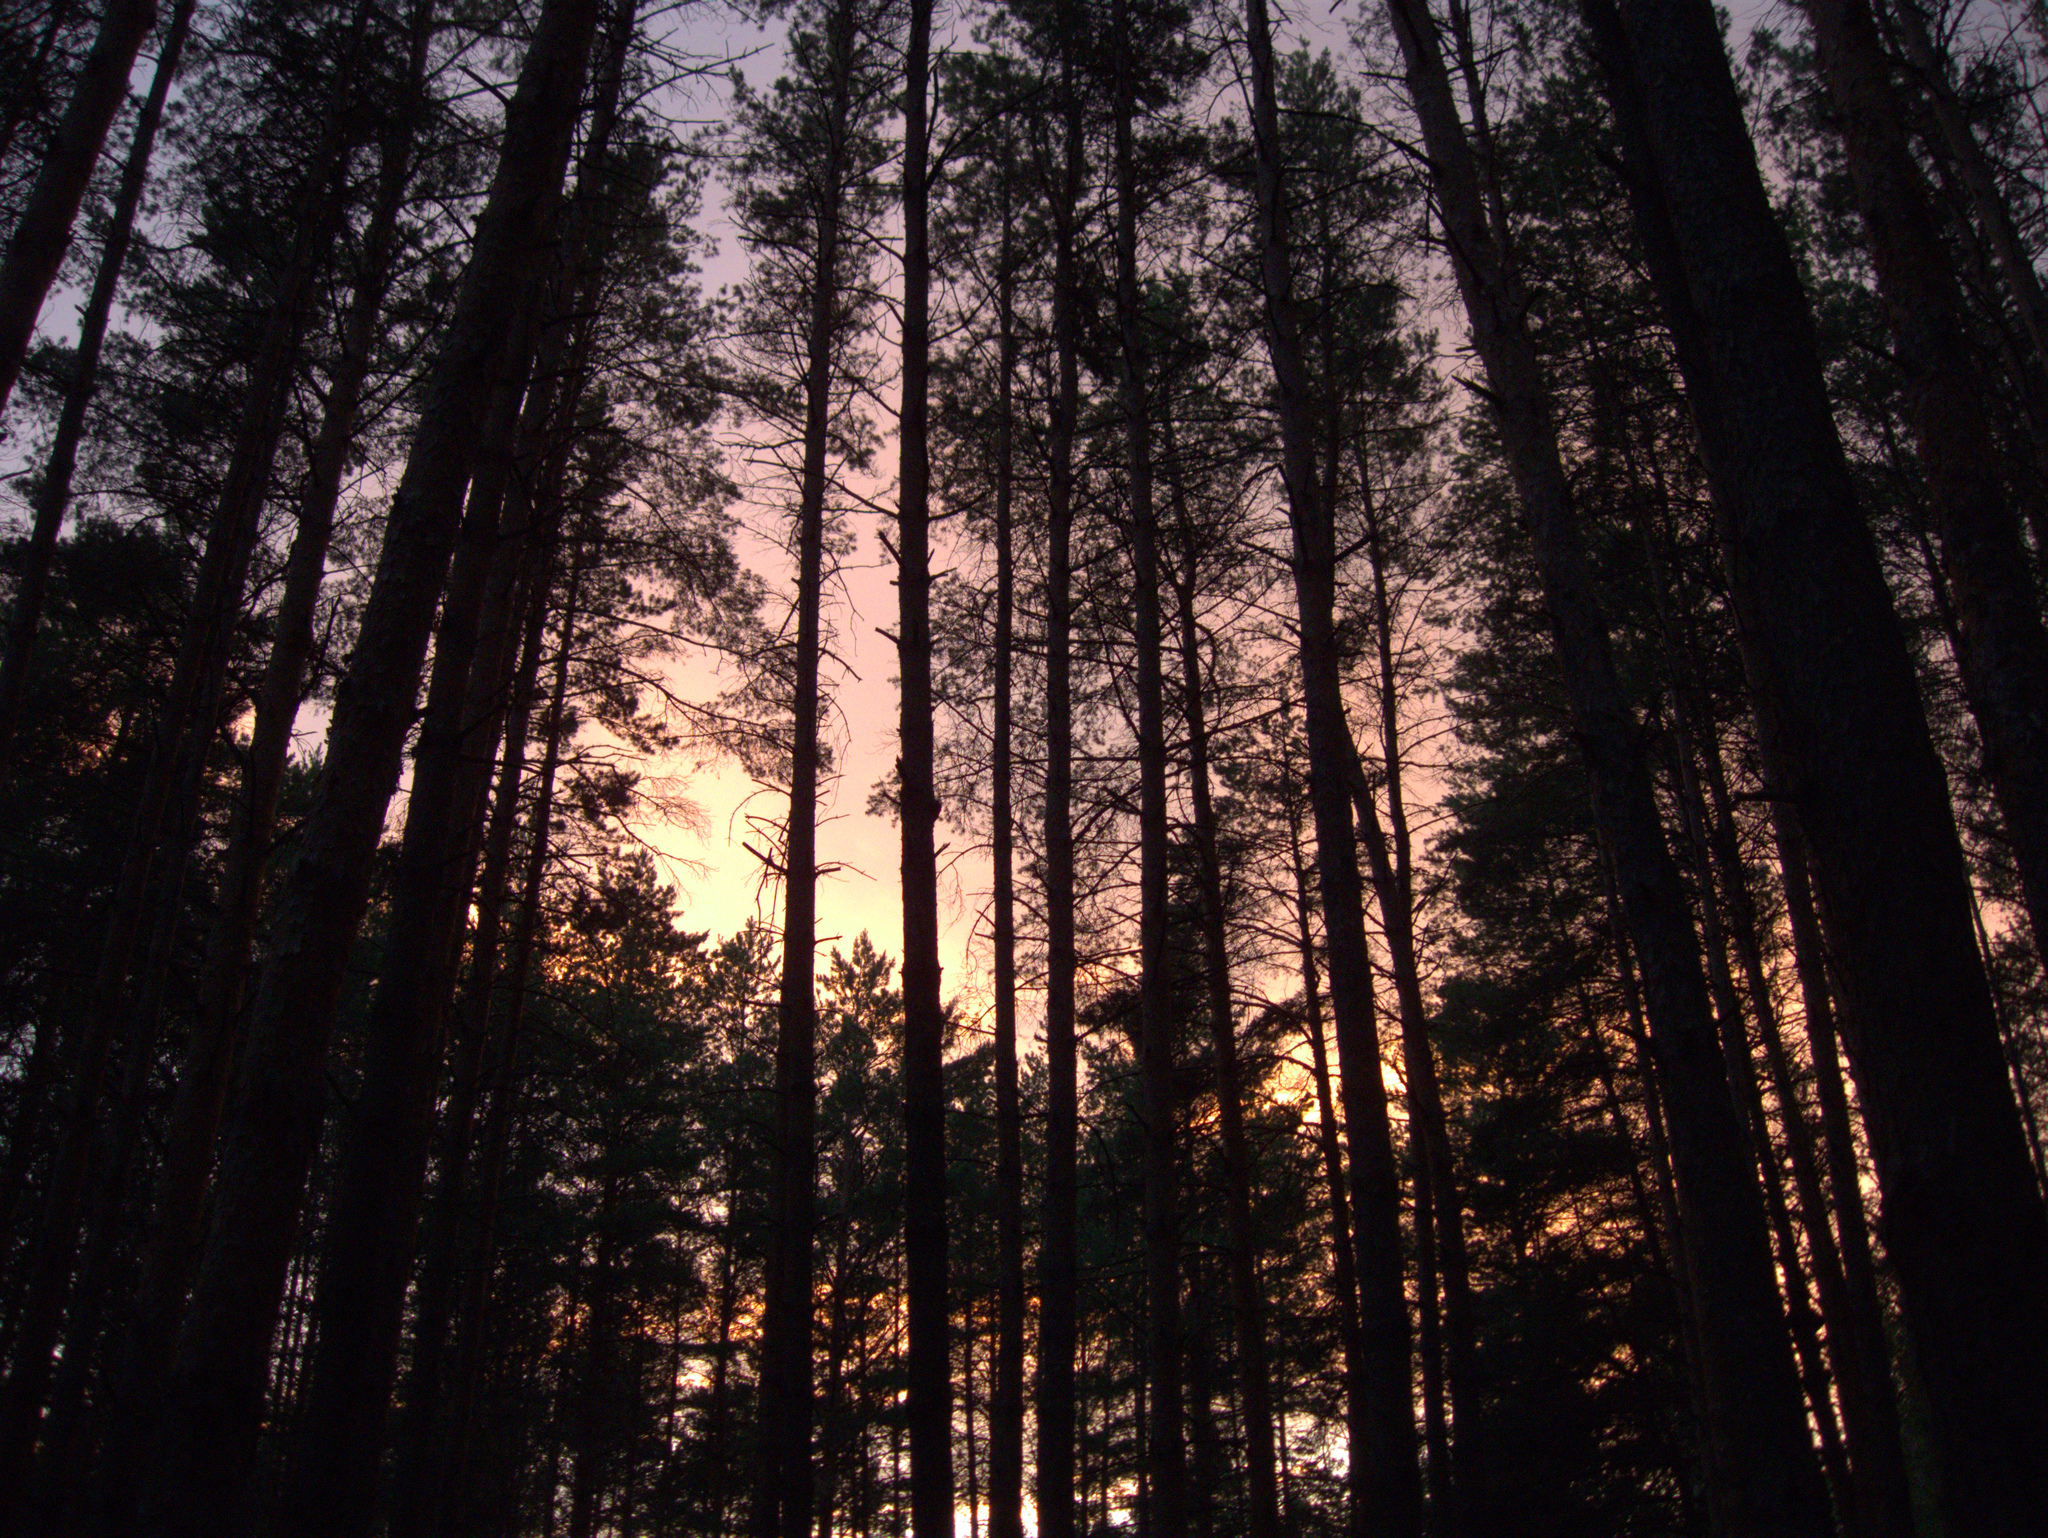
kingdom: Plantae
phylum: Tracheophyta
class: Pinopsida
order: Pinales
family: Pinaceae
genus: Pinus
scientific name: Pinus sylvestris
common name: Scots pine
